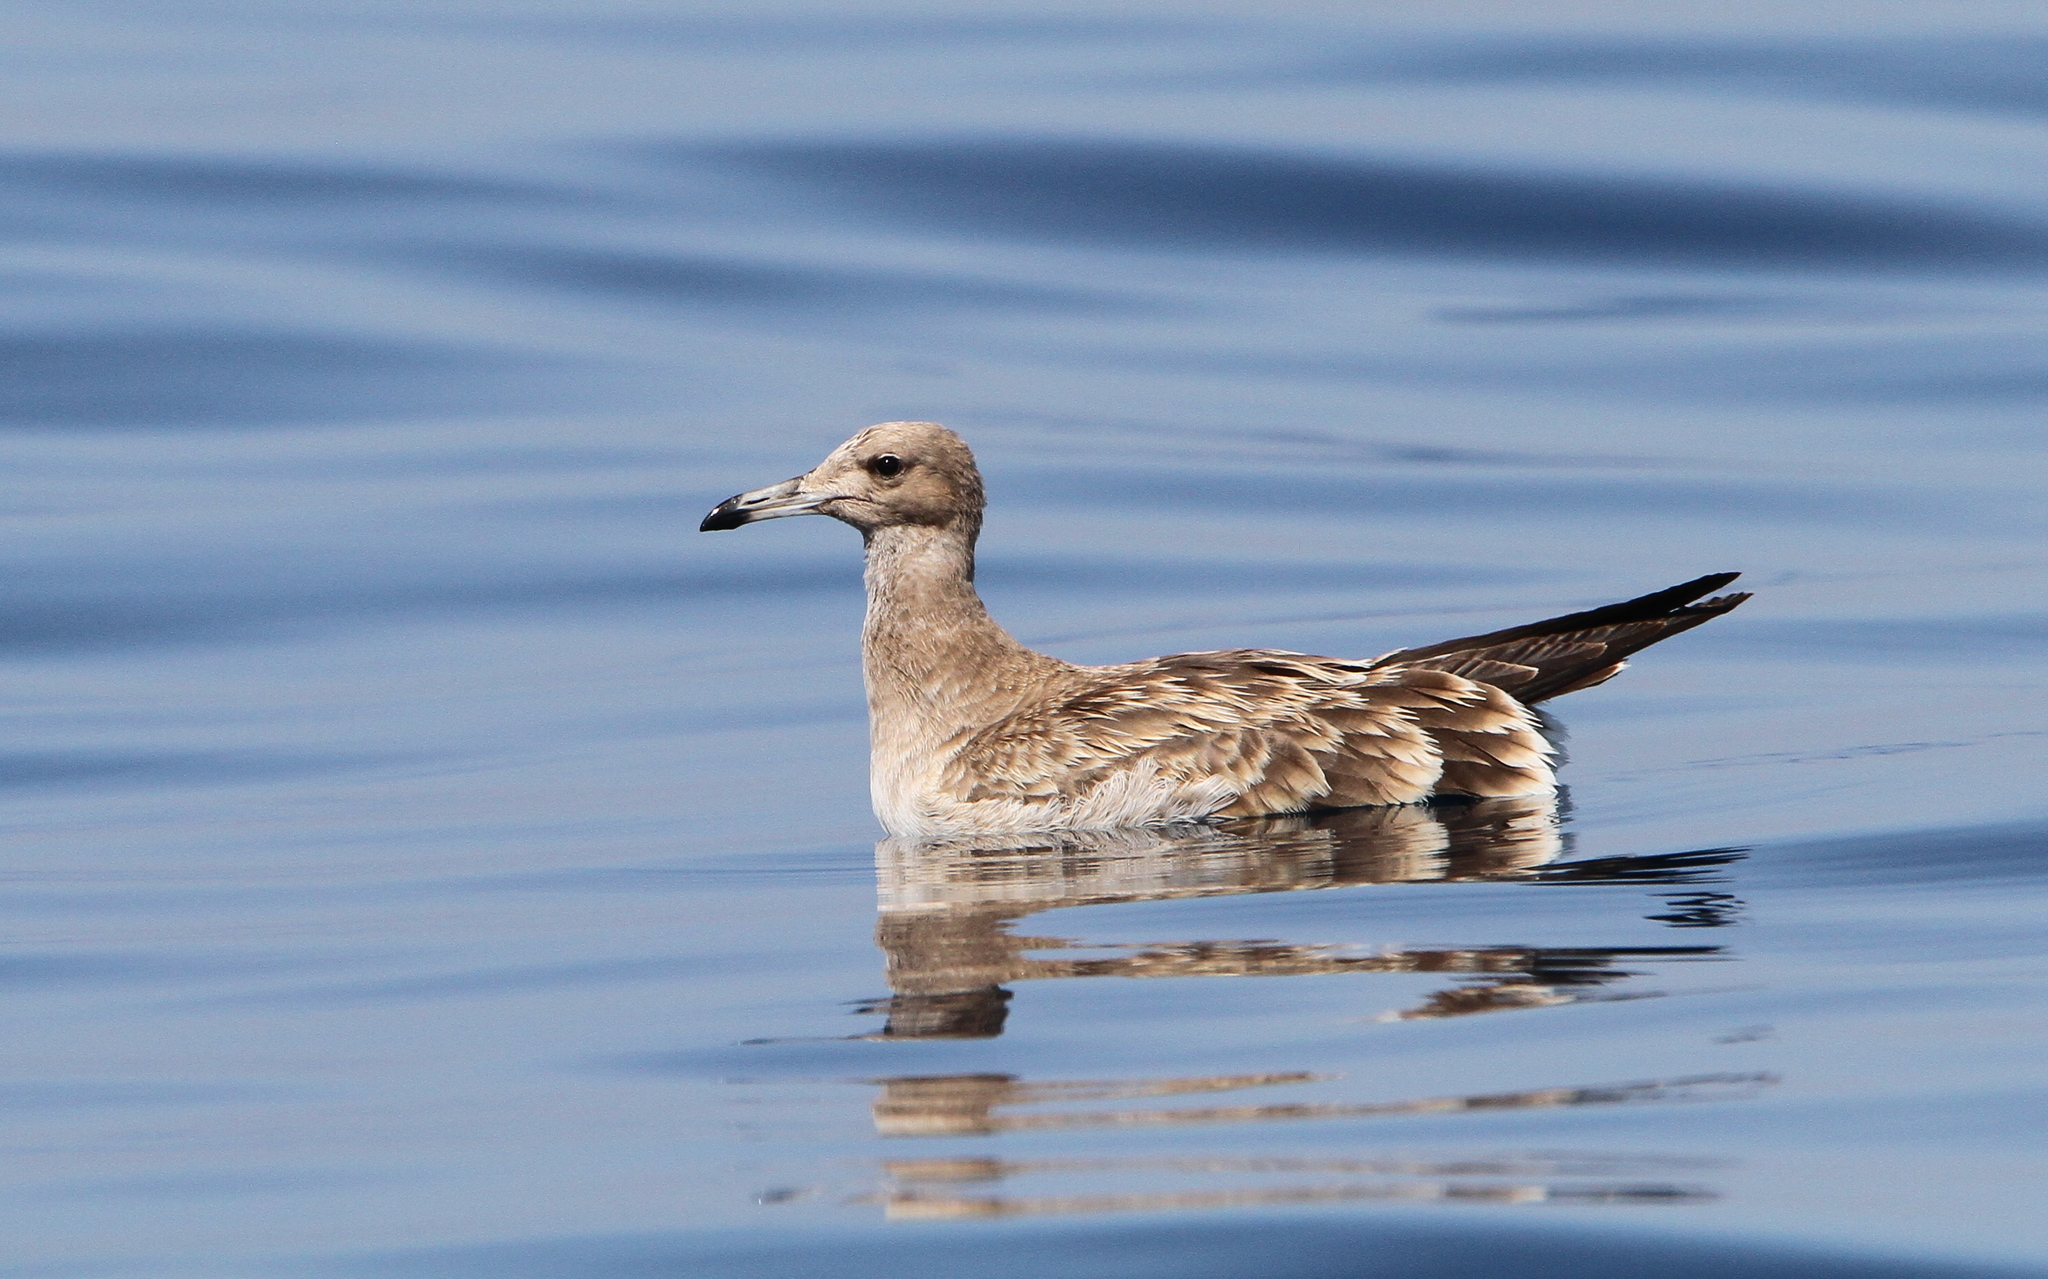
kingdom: Animalia
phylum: Chordata
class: Aves
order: Charadriiformes
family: Laridae
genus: Ichthyaetus
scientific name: Ichthyaetus hemprichii
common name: Sooty gull
